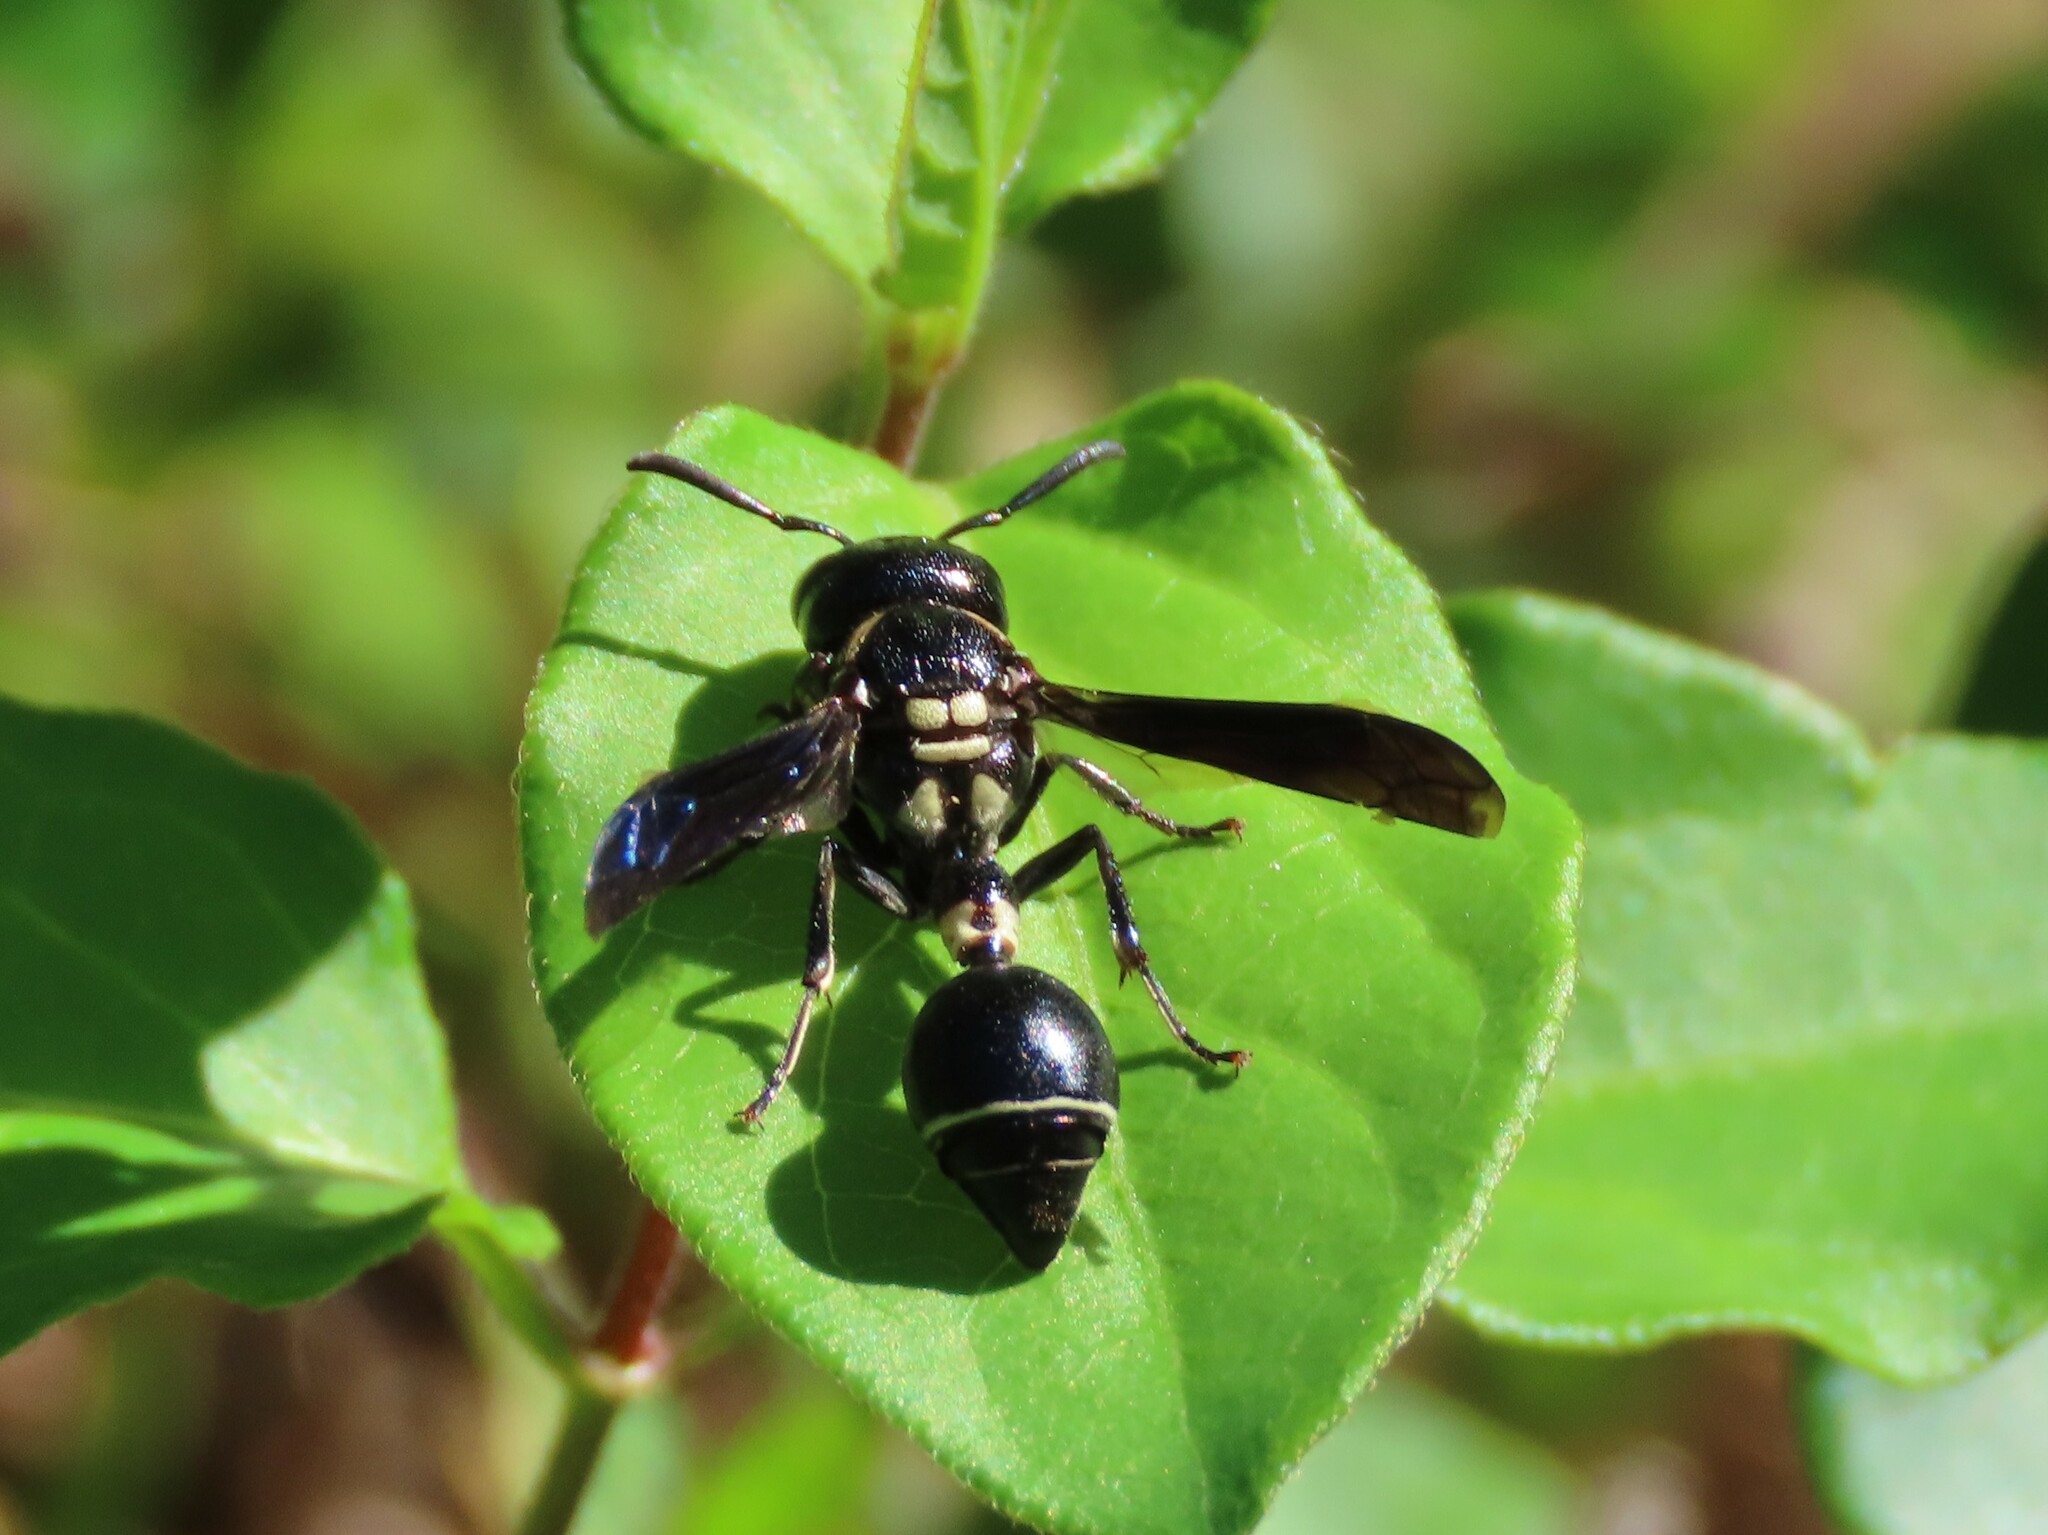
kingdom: Animalia
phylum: Arthropoda
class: Insecta
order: Hymenoptera
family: Eumenidae
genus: Zethus
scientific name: Zethus spinipes
